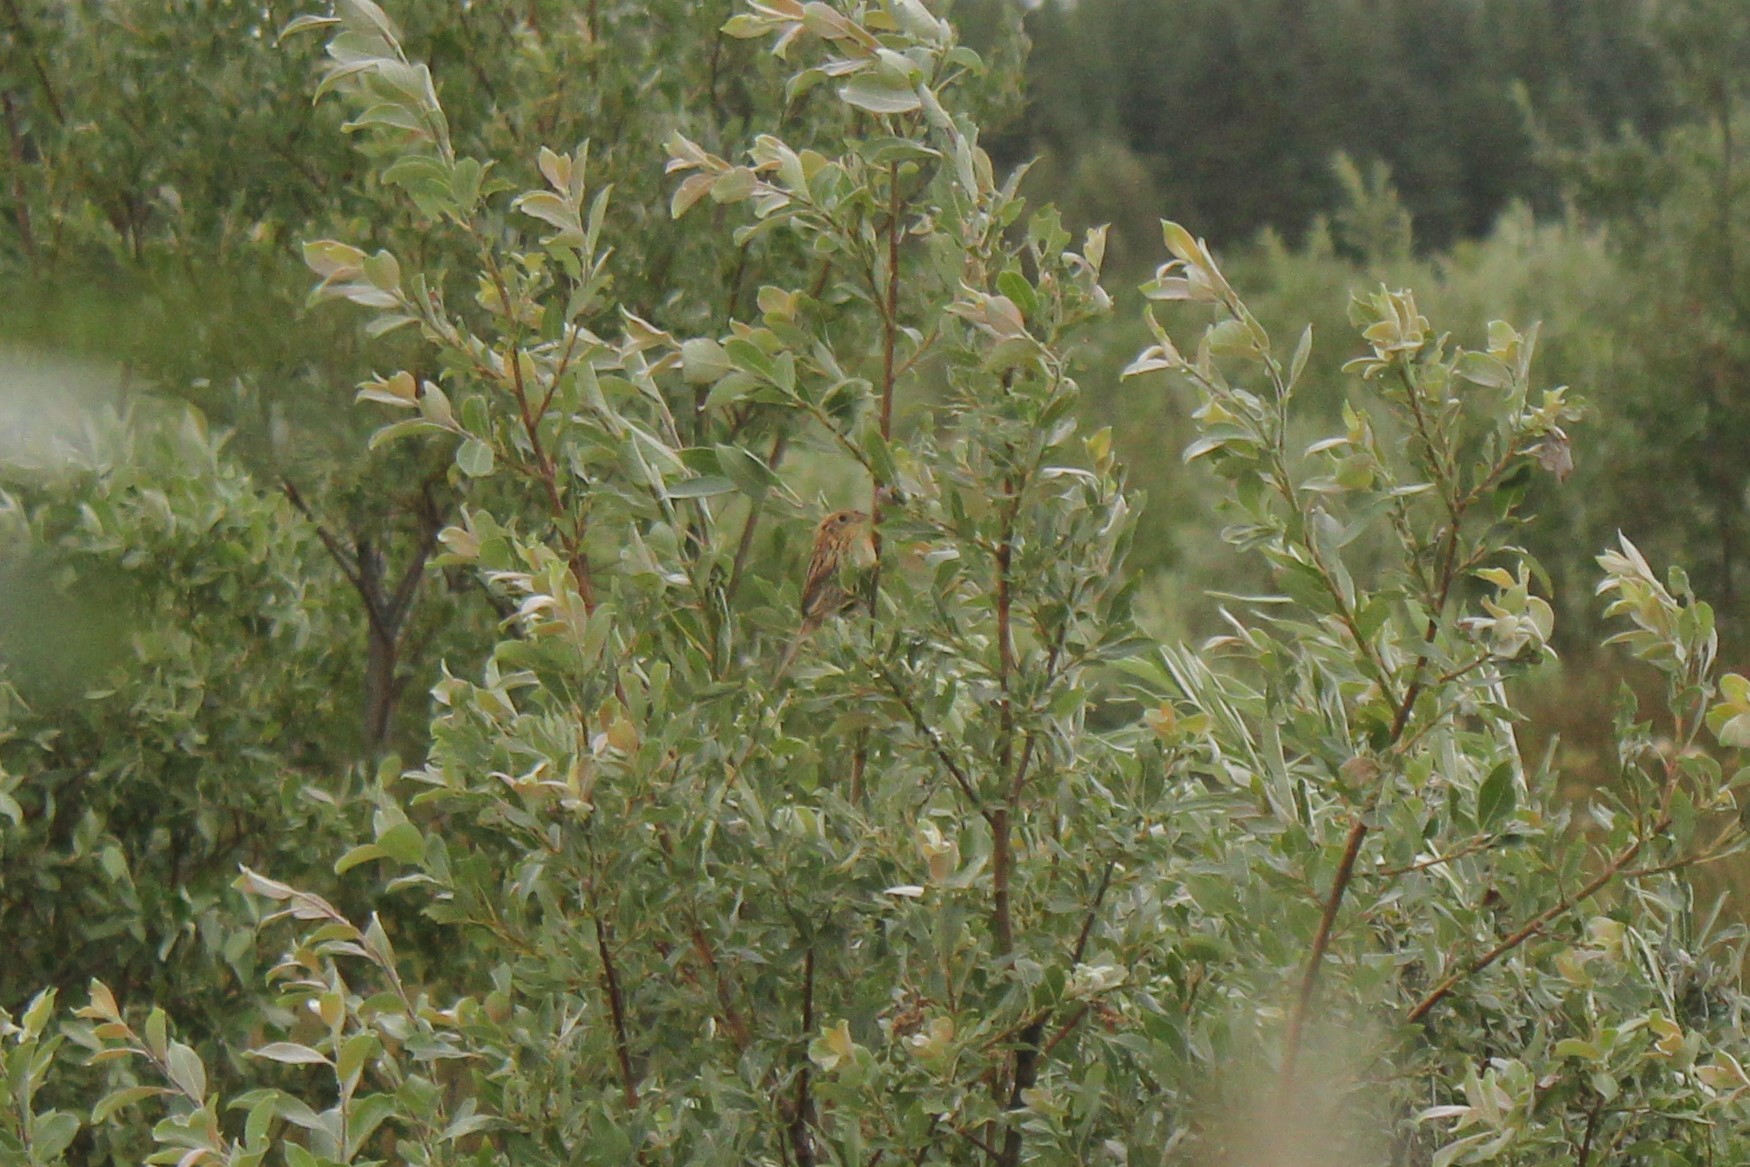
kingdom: Animalia
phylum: Chordata
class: Aves
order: Passeriformes
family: Passerellidae
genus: Ammospiza
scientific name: Ammospiza leconteii
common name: Le conte's sparrow
